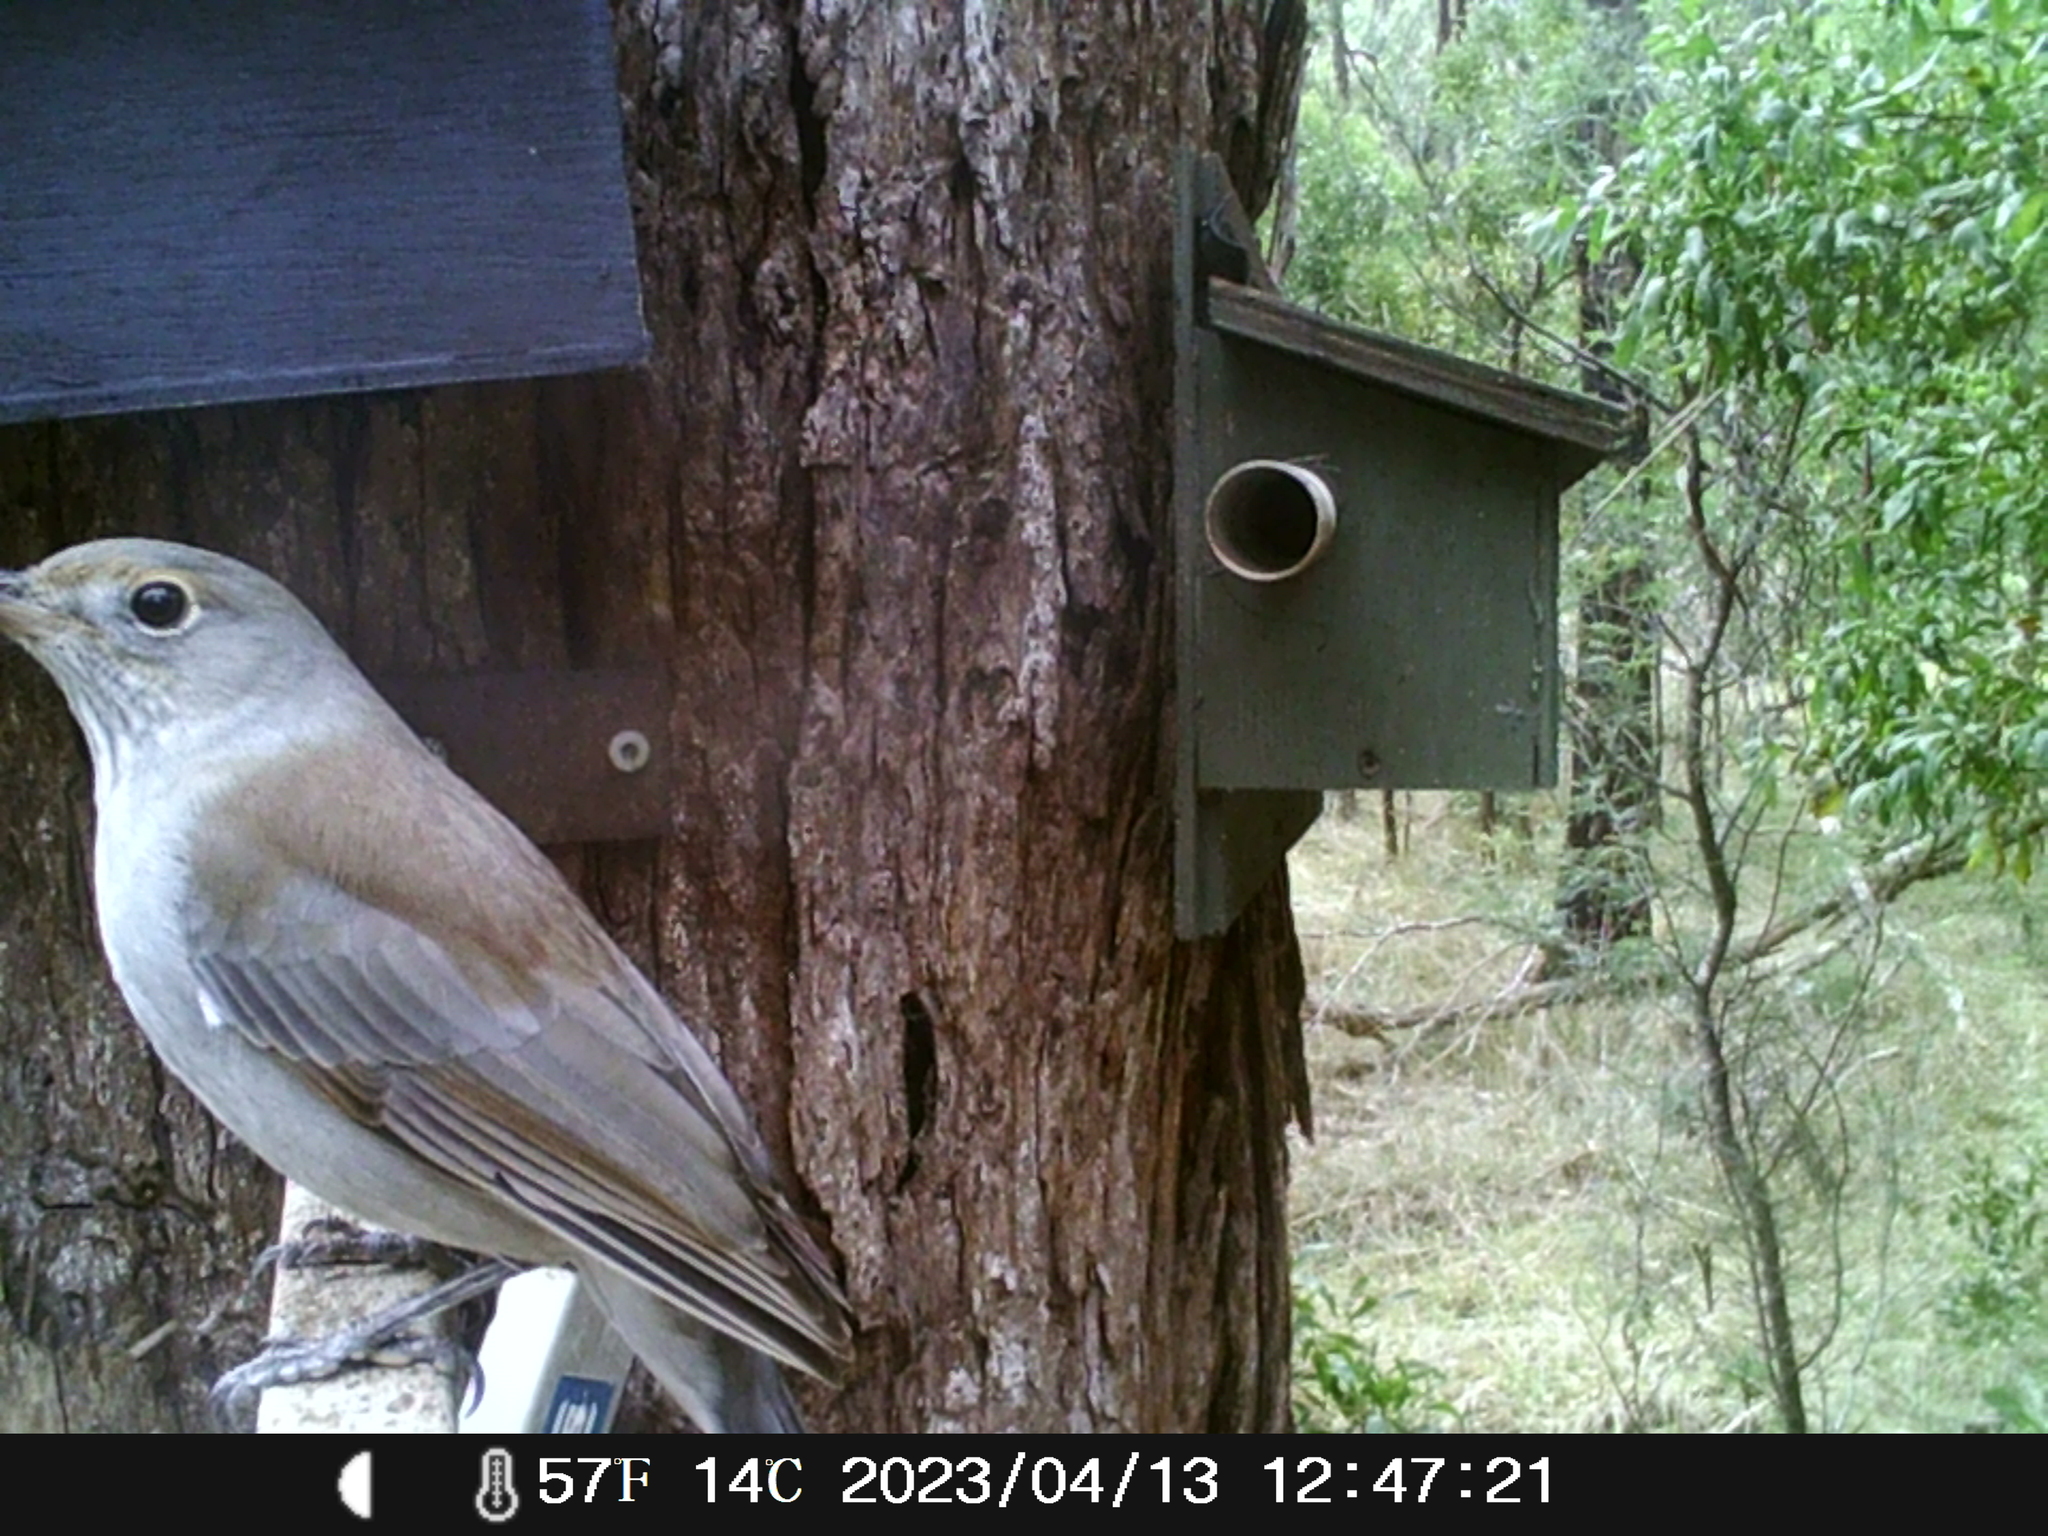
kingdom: Animalia
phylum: Chordata
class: Aves
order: Passeriformes
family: Pachycephalidae
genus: Colluricincla
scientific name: Colluricincla harmonica
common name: Grey shrikethrush
